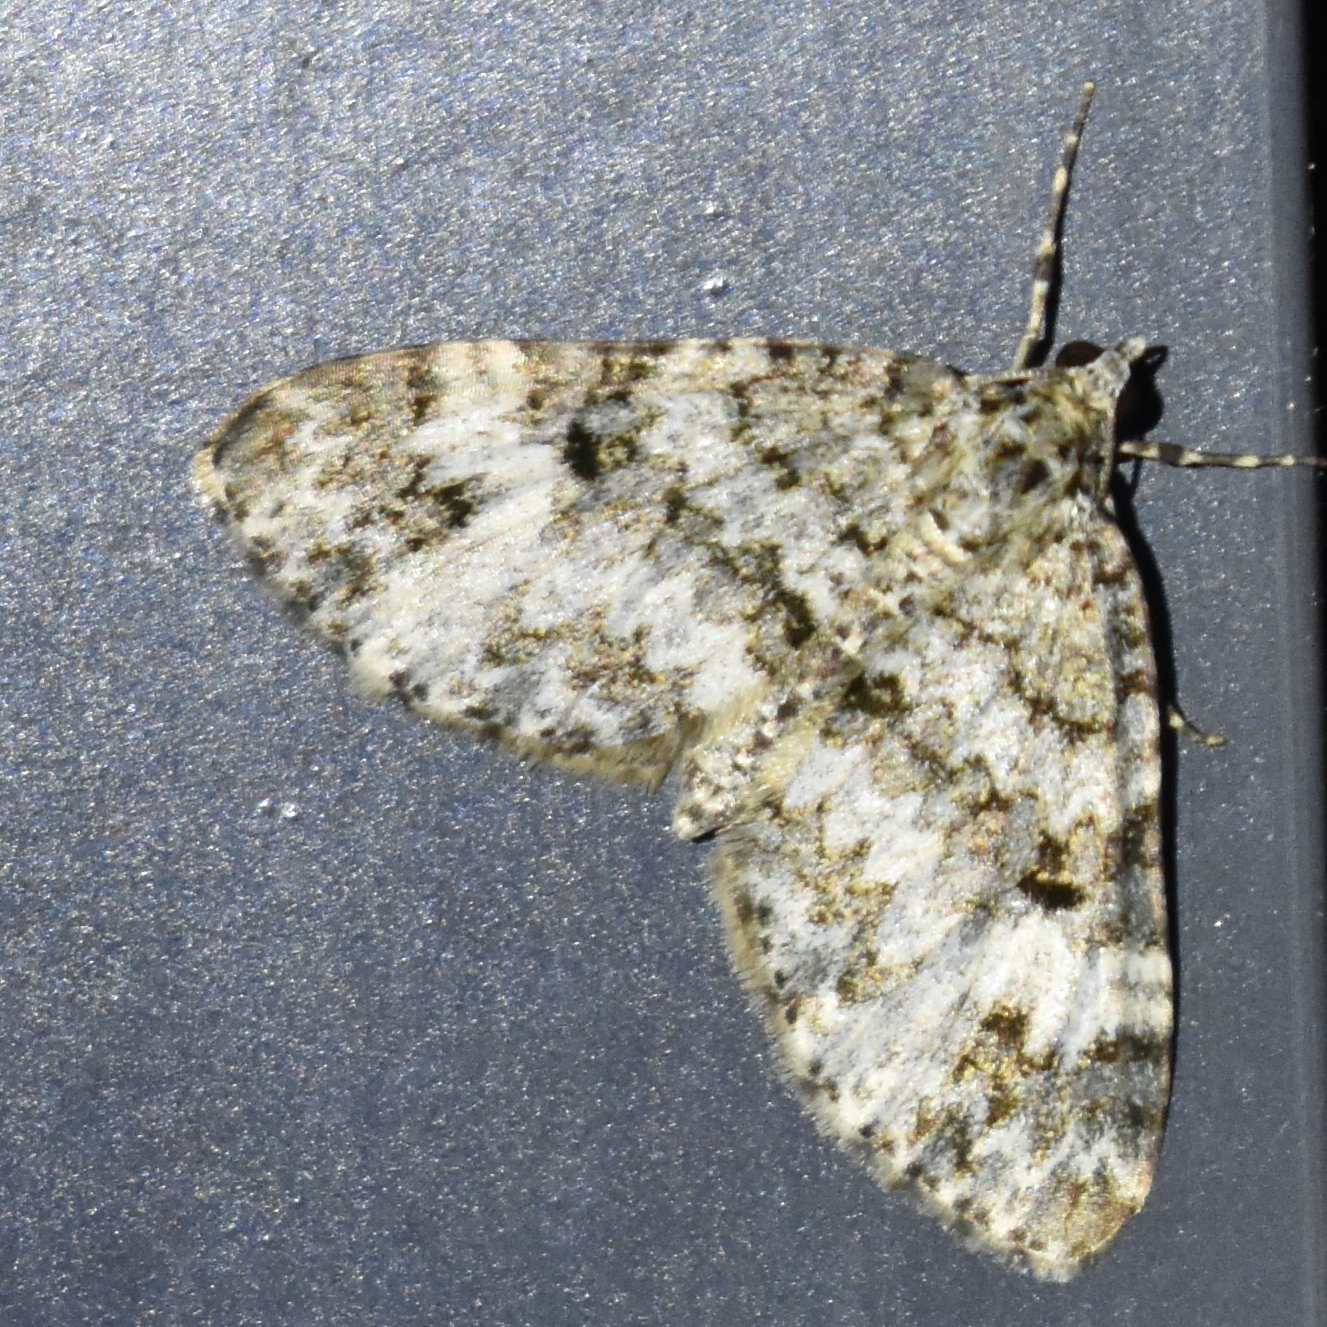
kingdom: Animalia
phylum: Arthropoda
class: Insecta
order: Lepidoptera
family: Geometridae
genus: Spargania
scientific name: Spargania magnoliata
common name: Double-banded carpet
